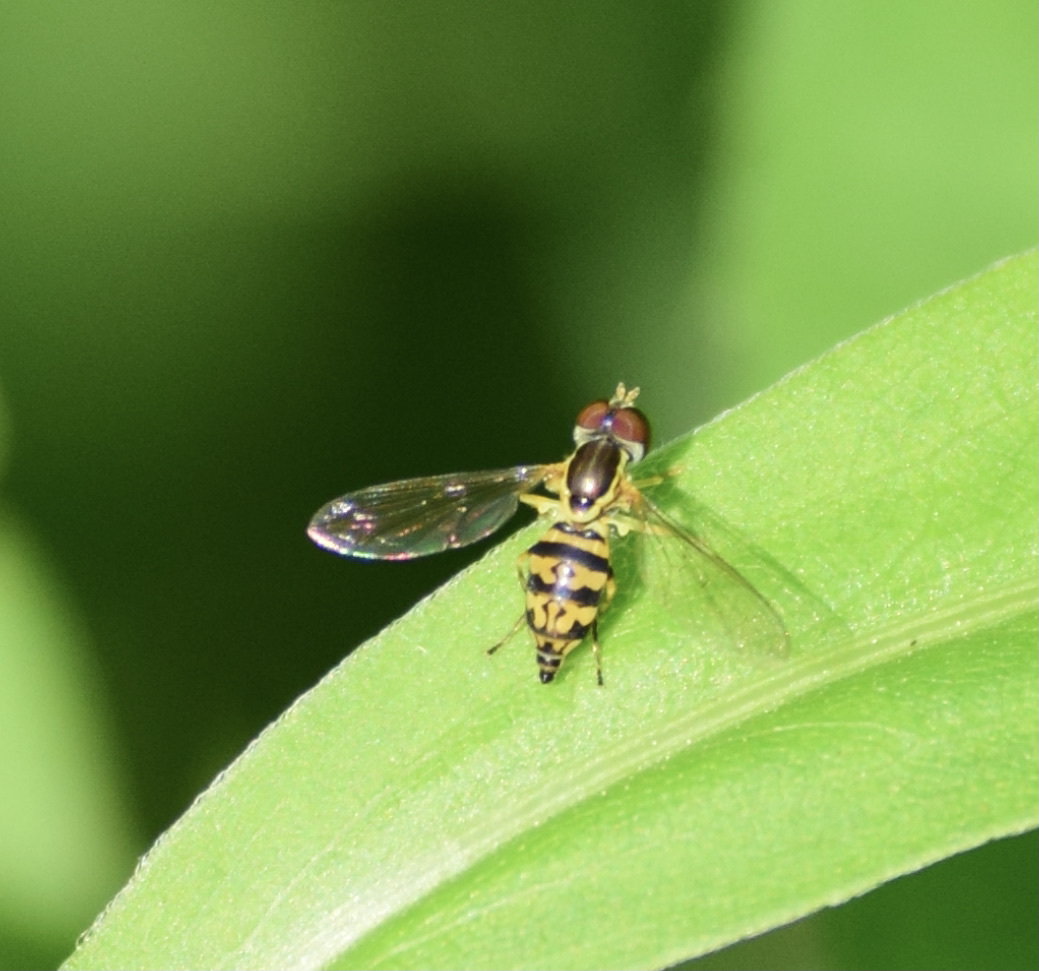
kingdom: Animalia
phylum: Arthropoda
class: Insecta
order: Diptera
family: Syrphidae
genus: Toxomerus
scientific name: Toxomerus geminatus
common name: Eastern calligrapher
